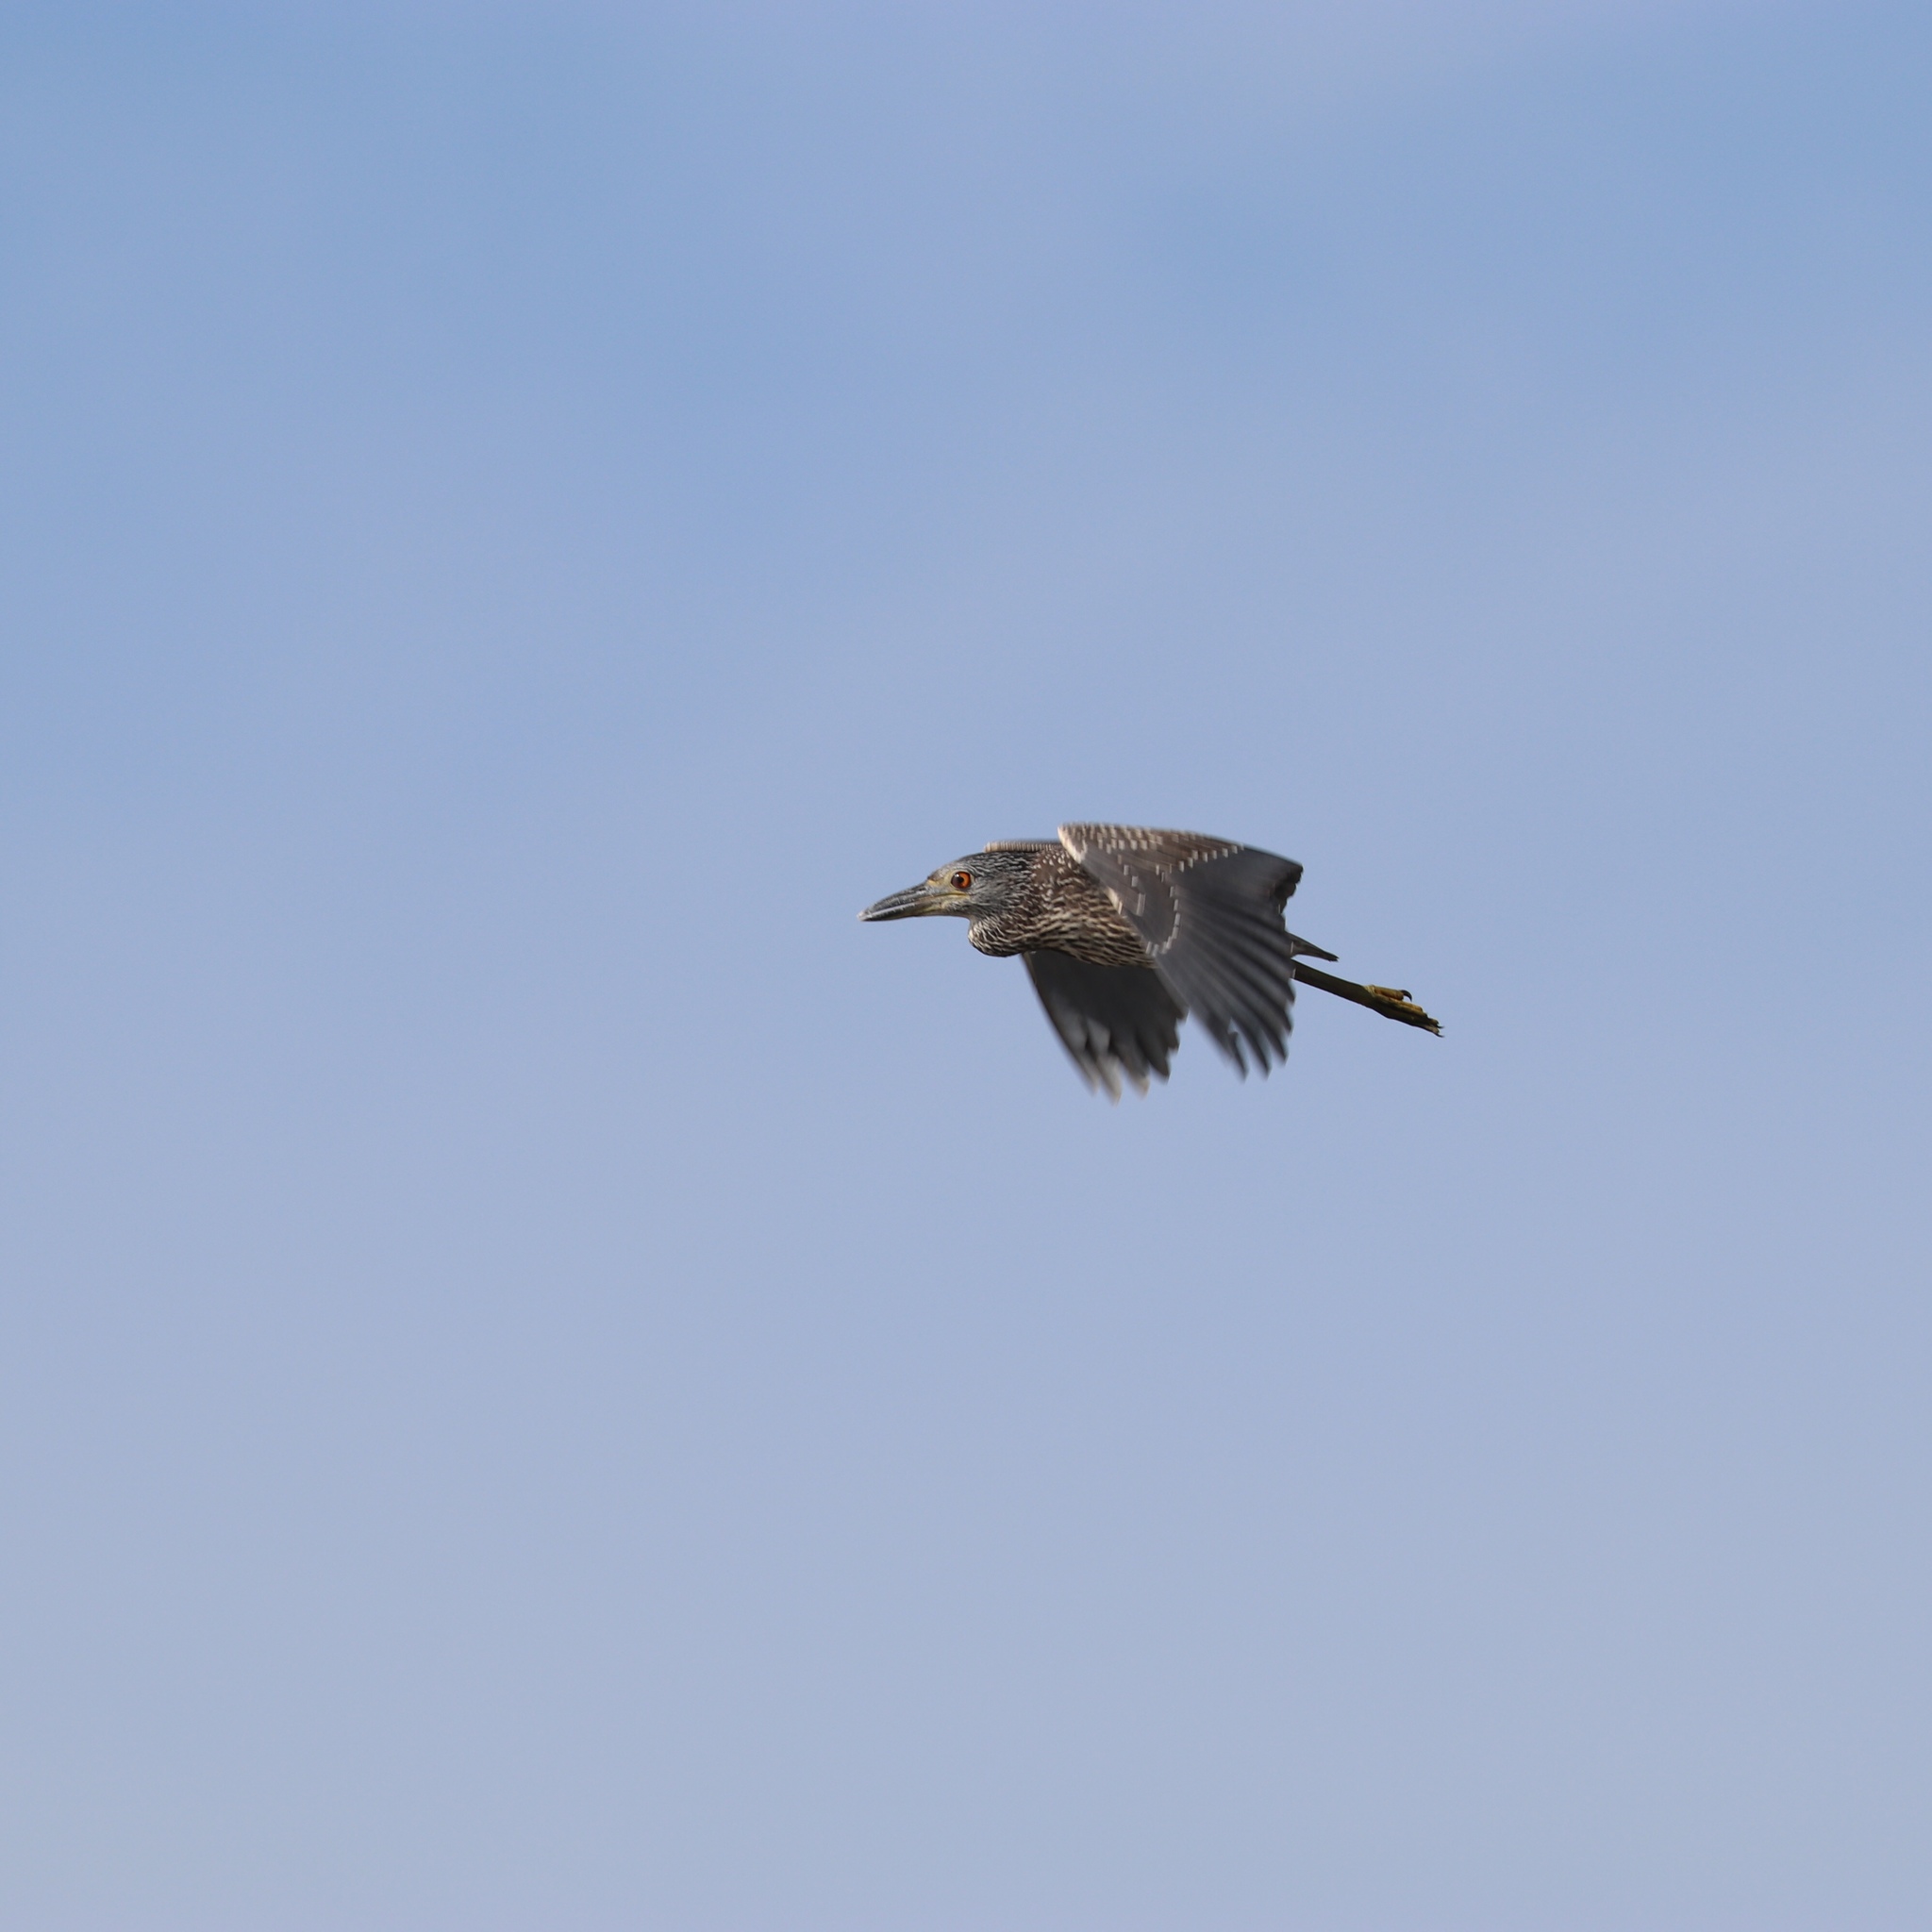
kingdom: Animalia
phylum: Chordata
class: Aves
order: Pelecaniformes
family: Ardeidae
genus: Nyctanassa
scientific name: Nyctanassa violacea
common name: Yellow-crowned night heron
